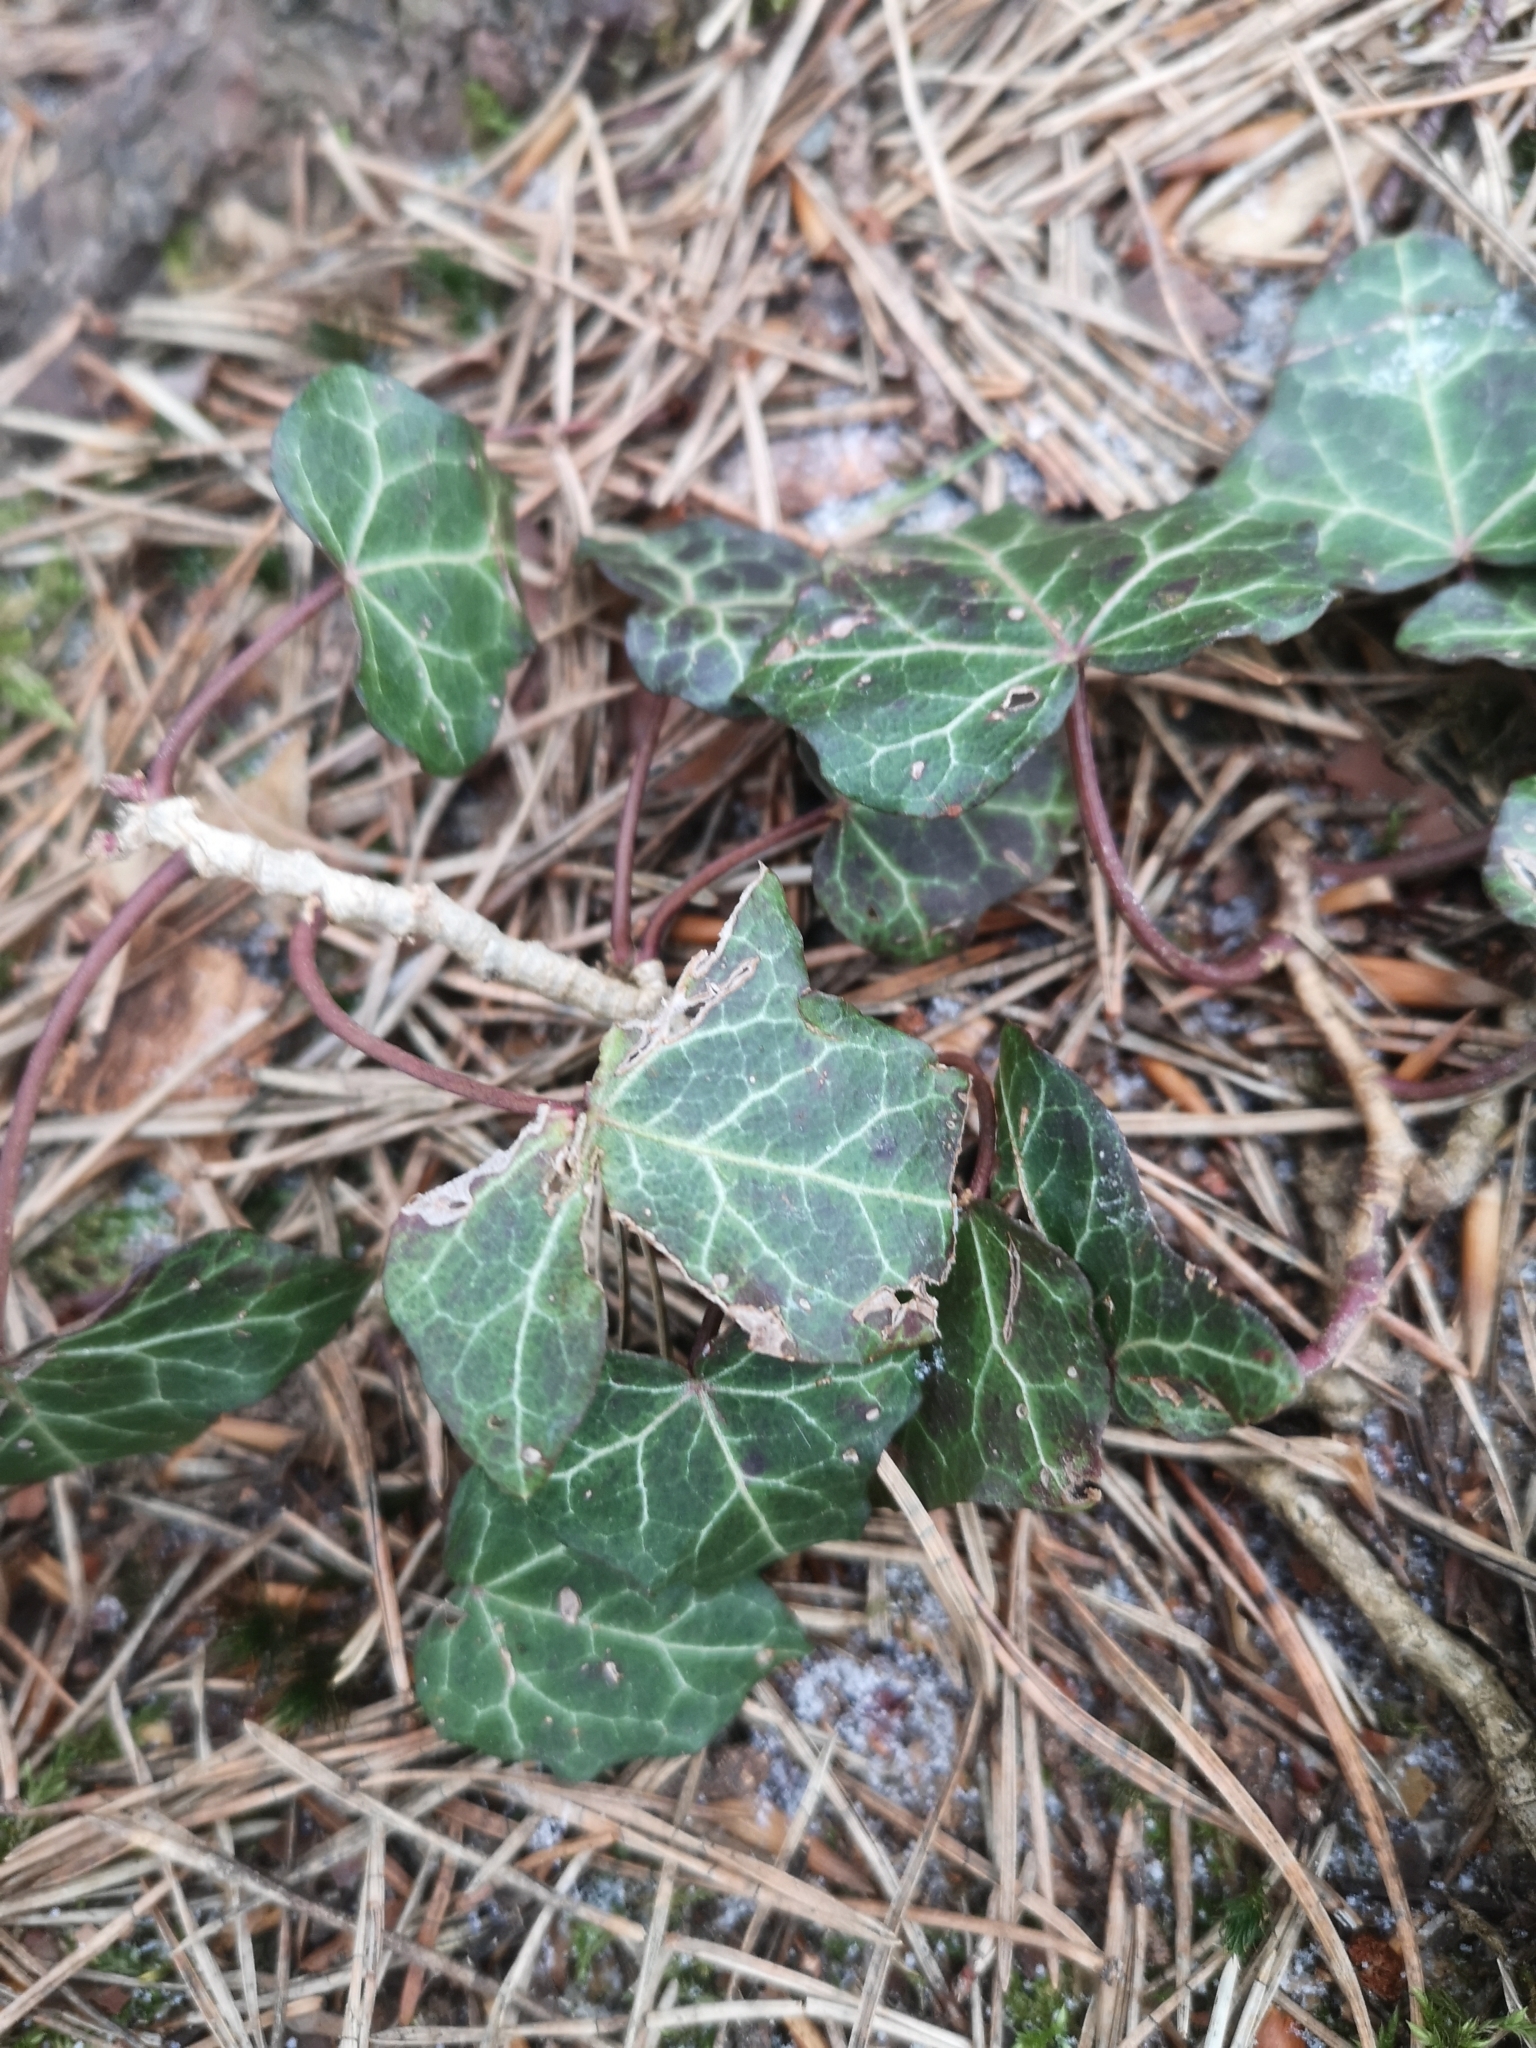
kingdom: Plantae
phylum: Tracheophyta
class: Magnoliopsida
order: Apiales
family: Araliaceae
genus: Hedera
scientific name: Hedera helix
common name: Ivy
